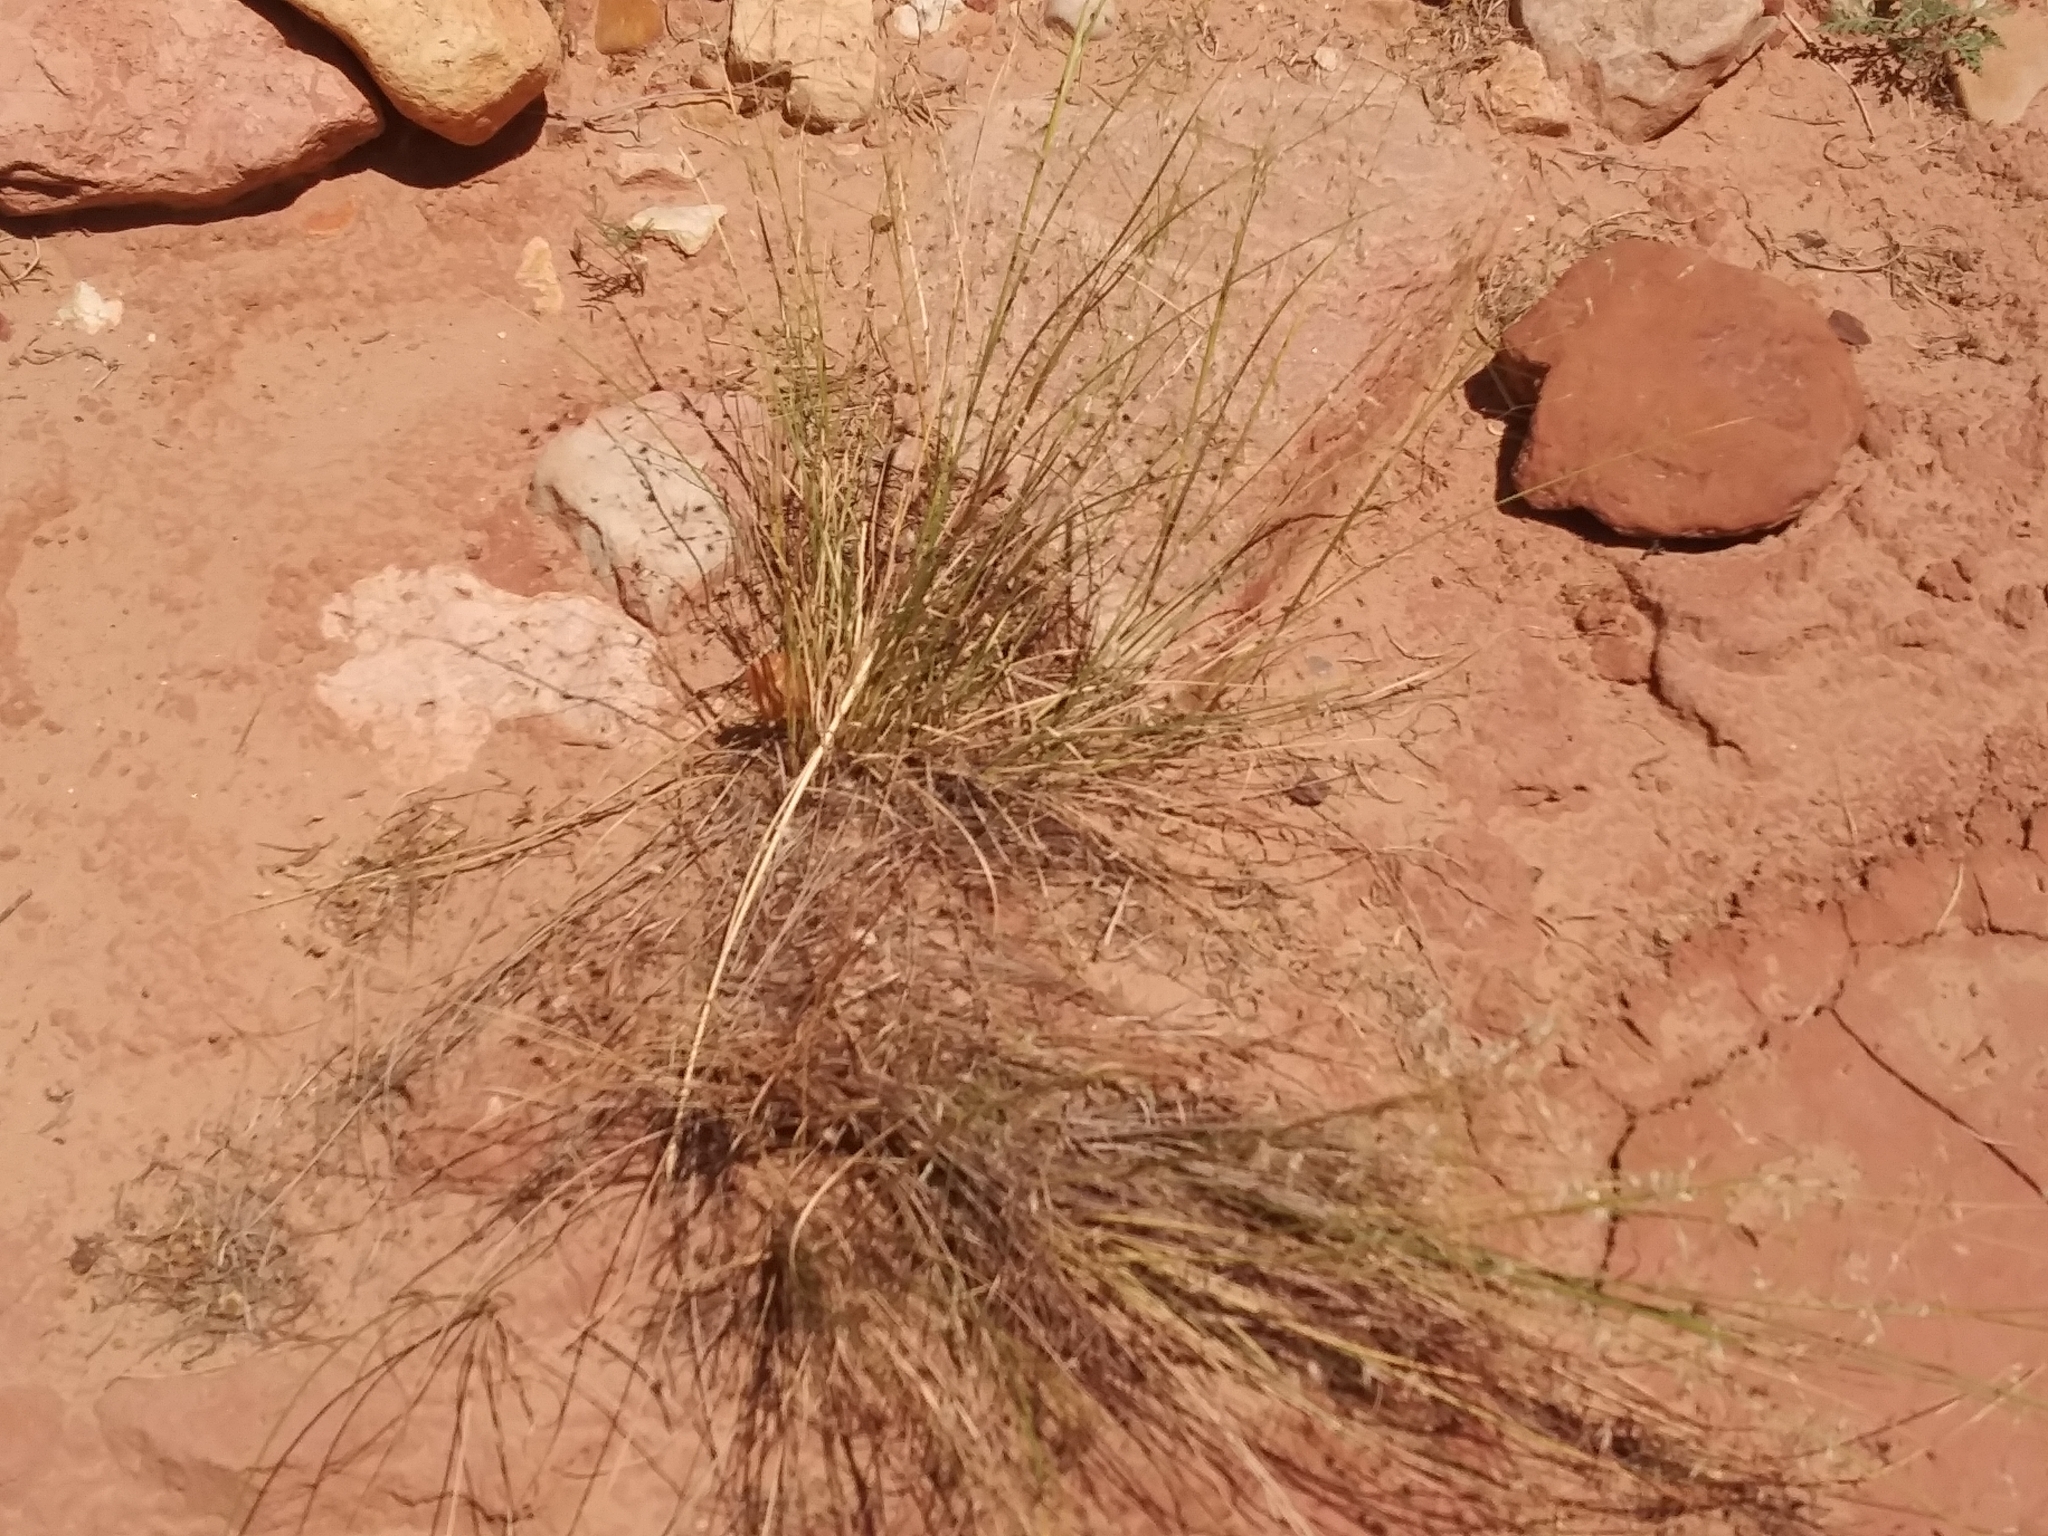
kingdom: Plantae
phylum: Tracheophyta
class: Liliopsida
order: Poales
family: Poaceae
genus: Eriocoma
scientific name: Eriocoma hymenoides
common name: Indian mountain ricegrass
